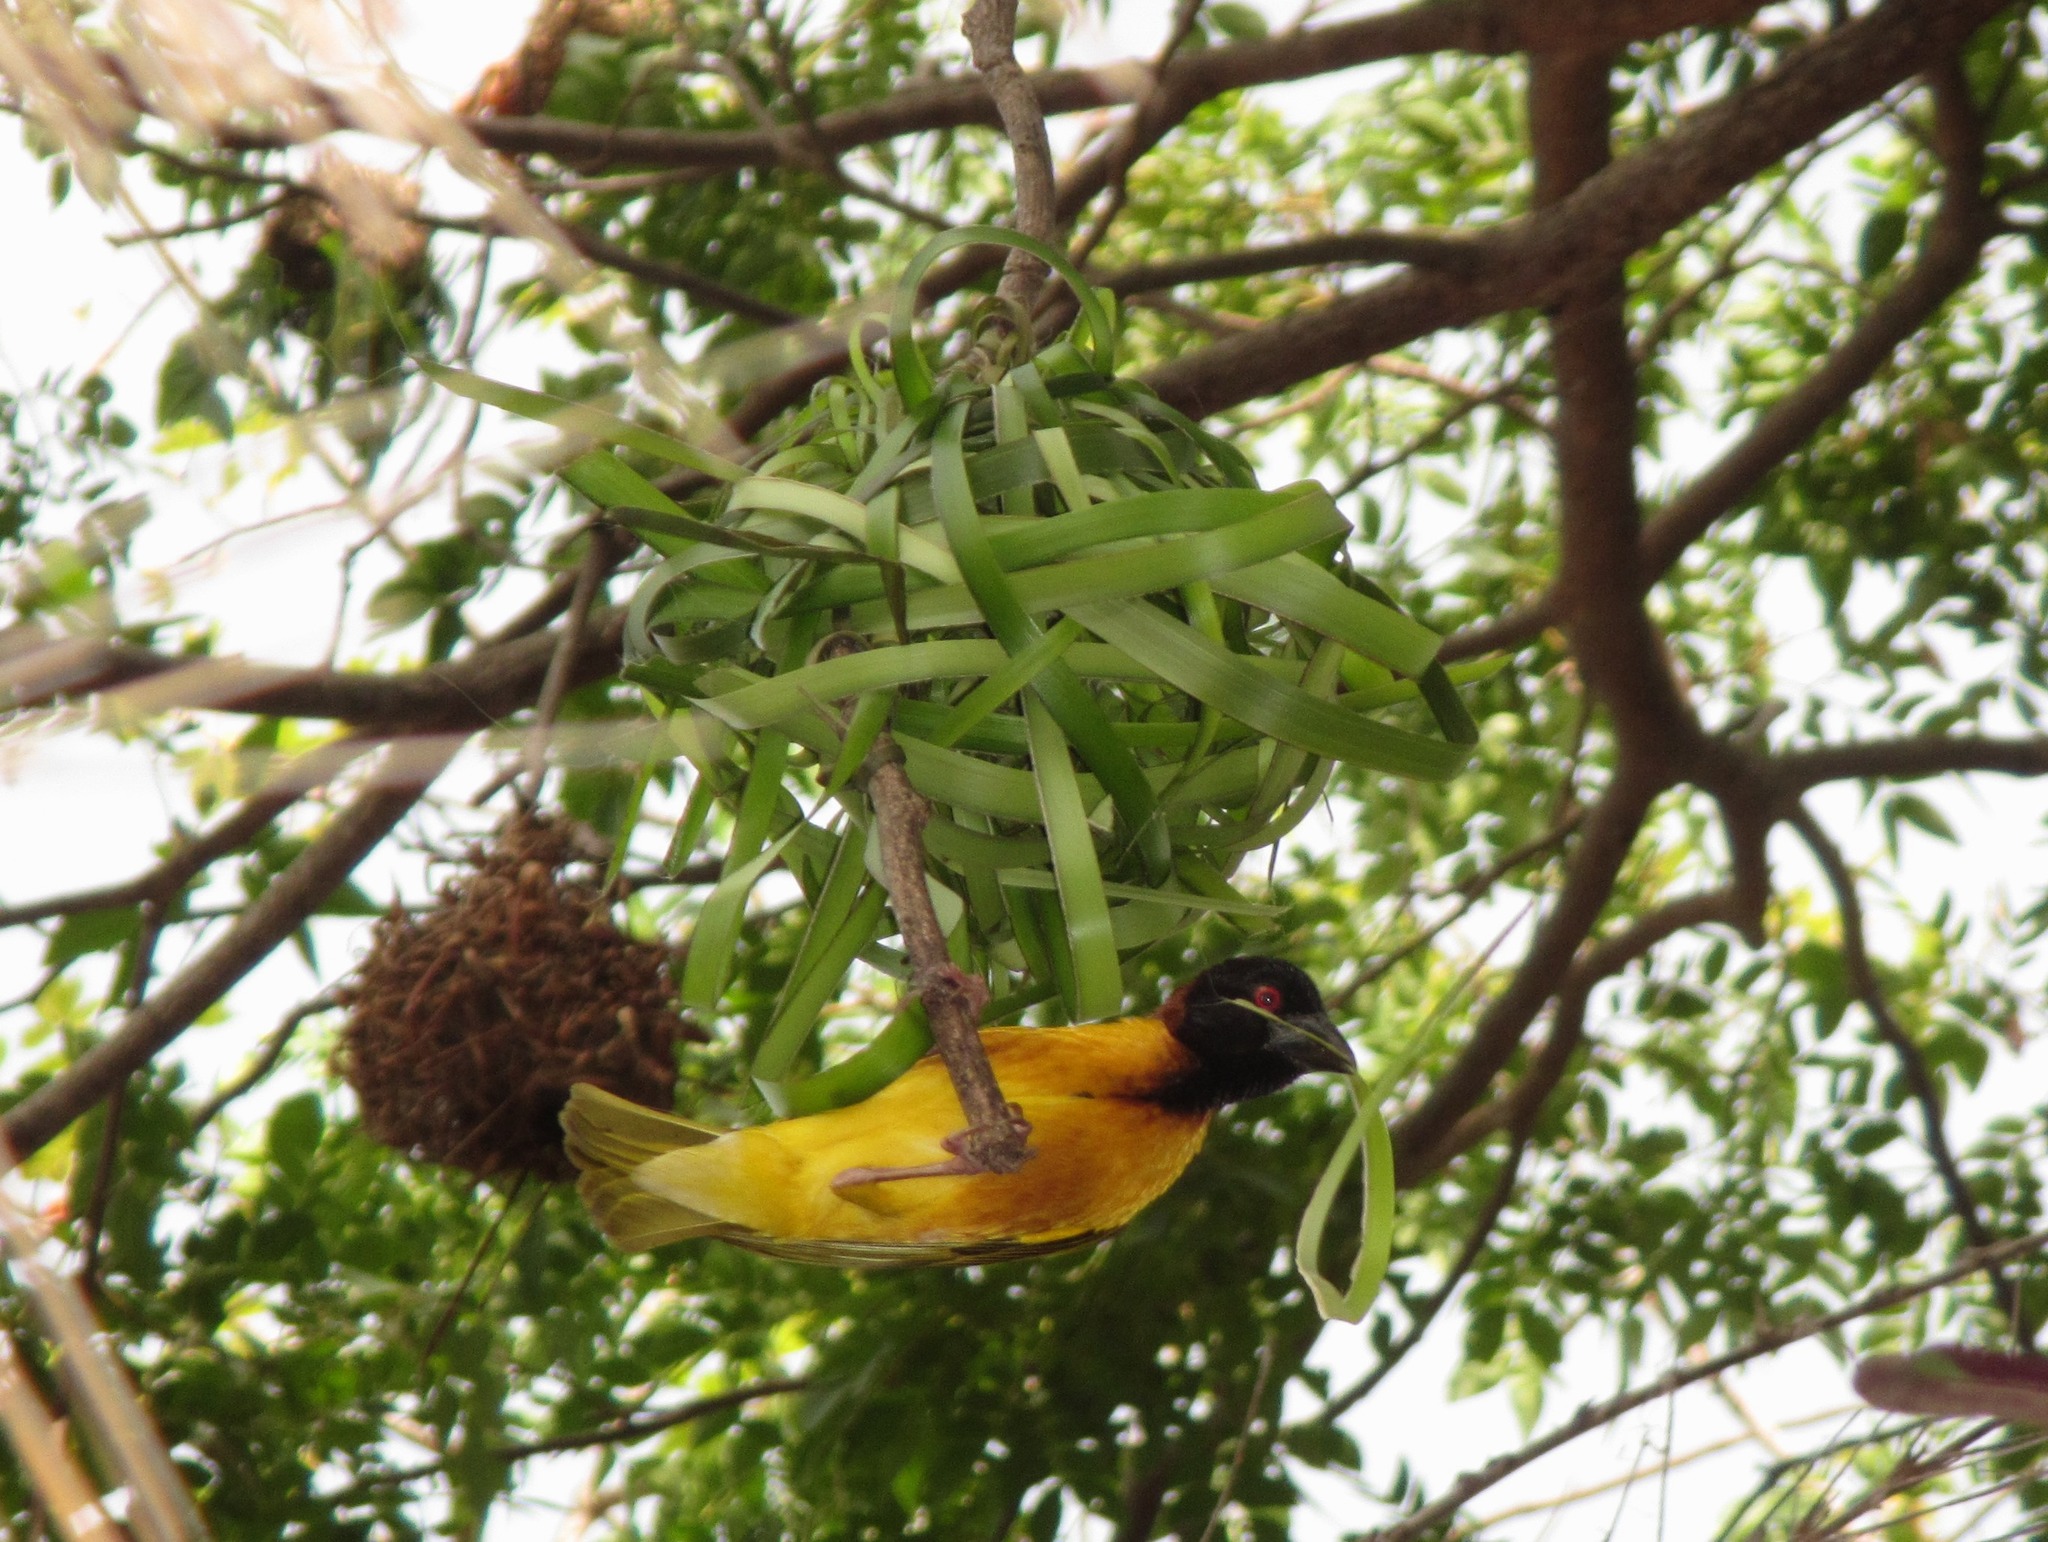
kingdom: Animalia
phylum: Chordata
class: Aves
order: Passeriformes
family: Ploceidae
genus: Ploceus
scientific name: Ploceus cucullatus
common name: Village weaver
